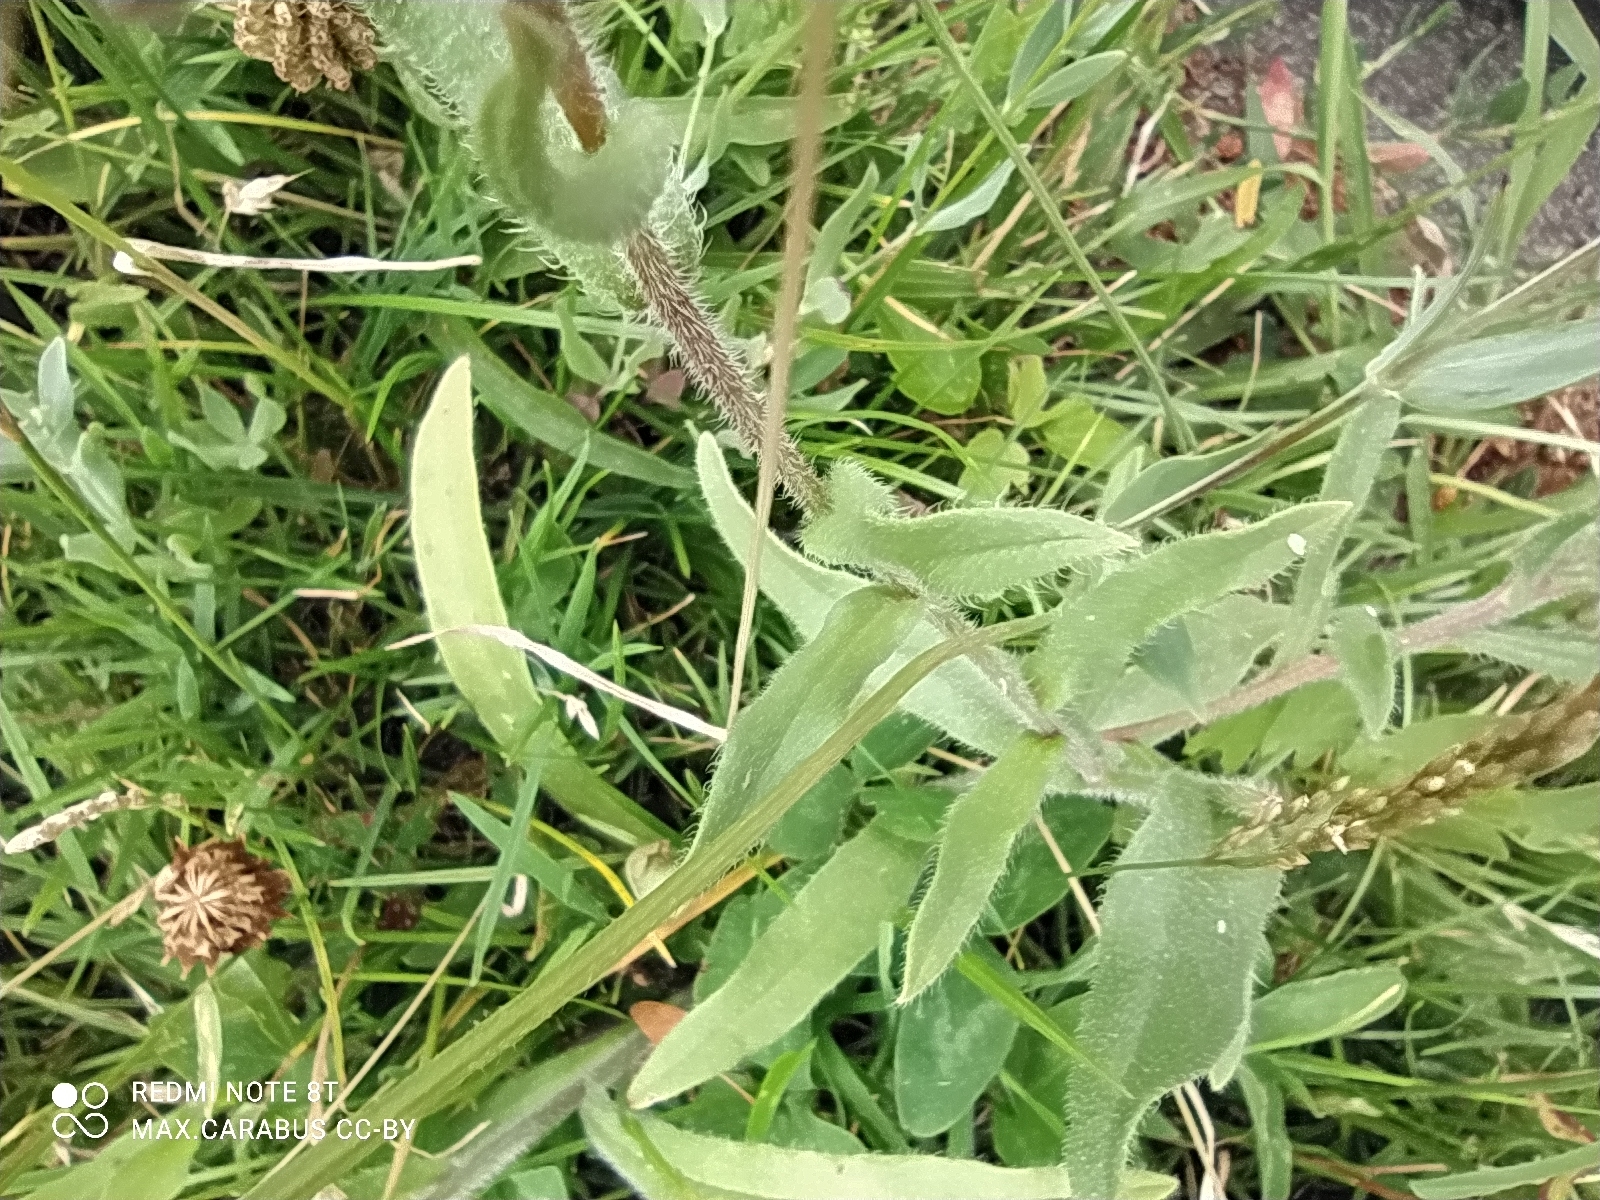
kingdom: Plantae
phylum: Tracheophyta
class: Magnoliopsida
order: Boraginales
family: Boraginaceae
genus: Anchusa
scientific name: Anchusa officinalis
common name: Alkanet
